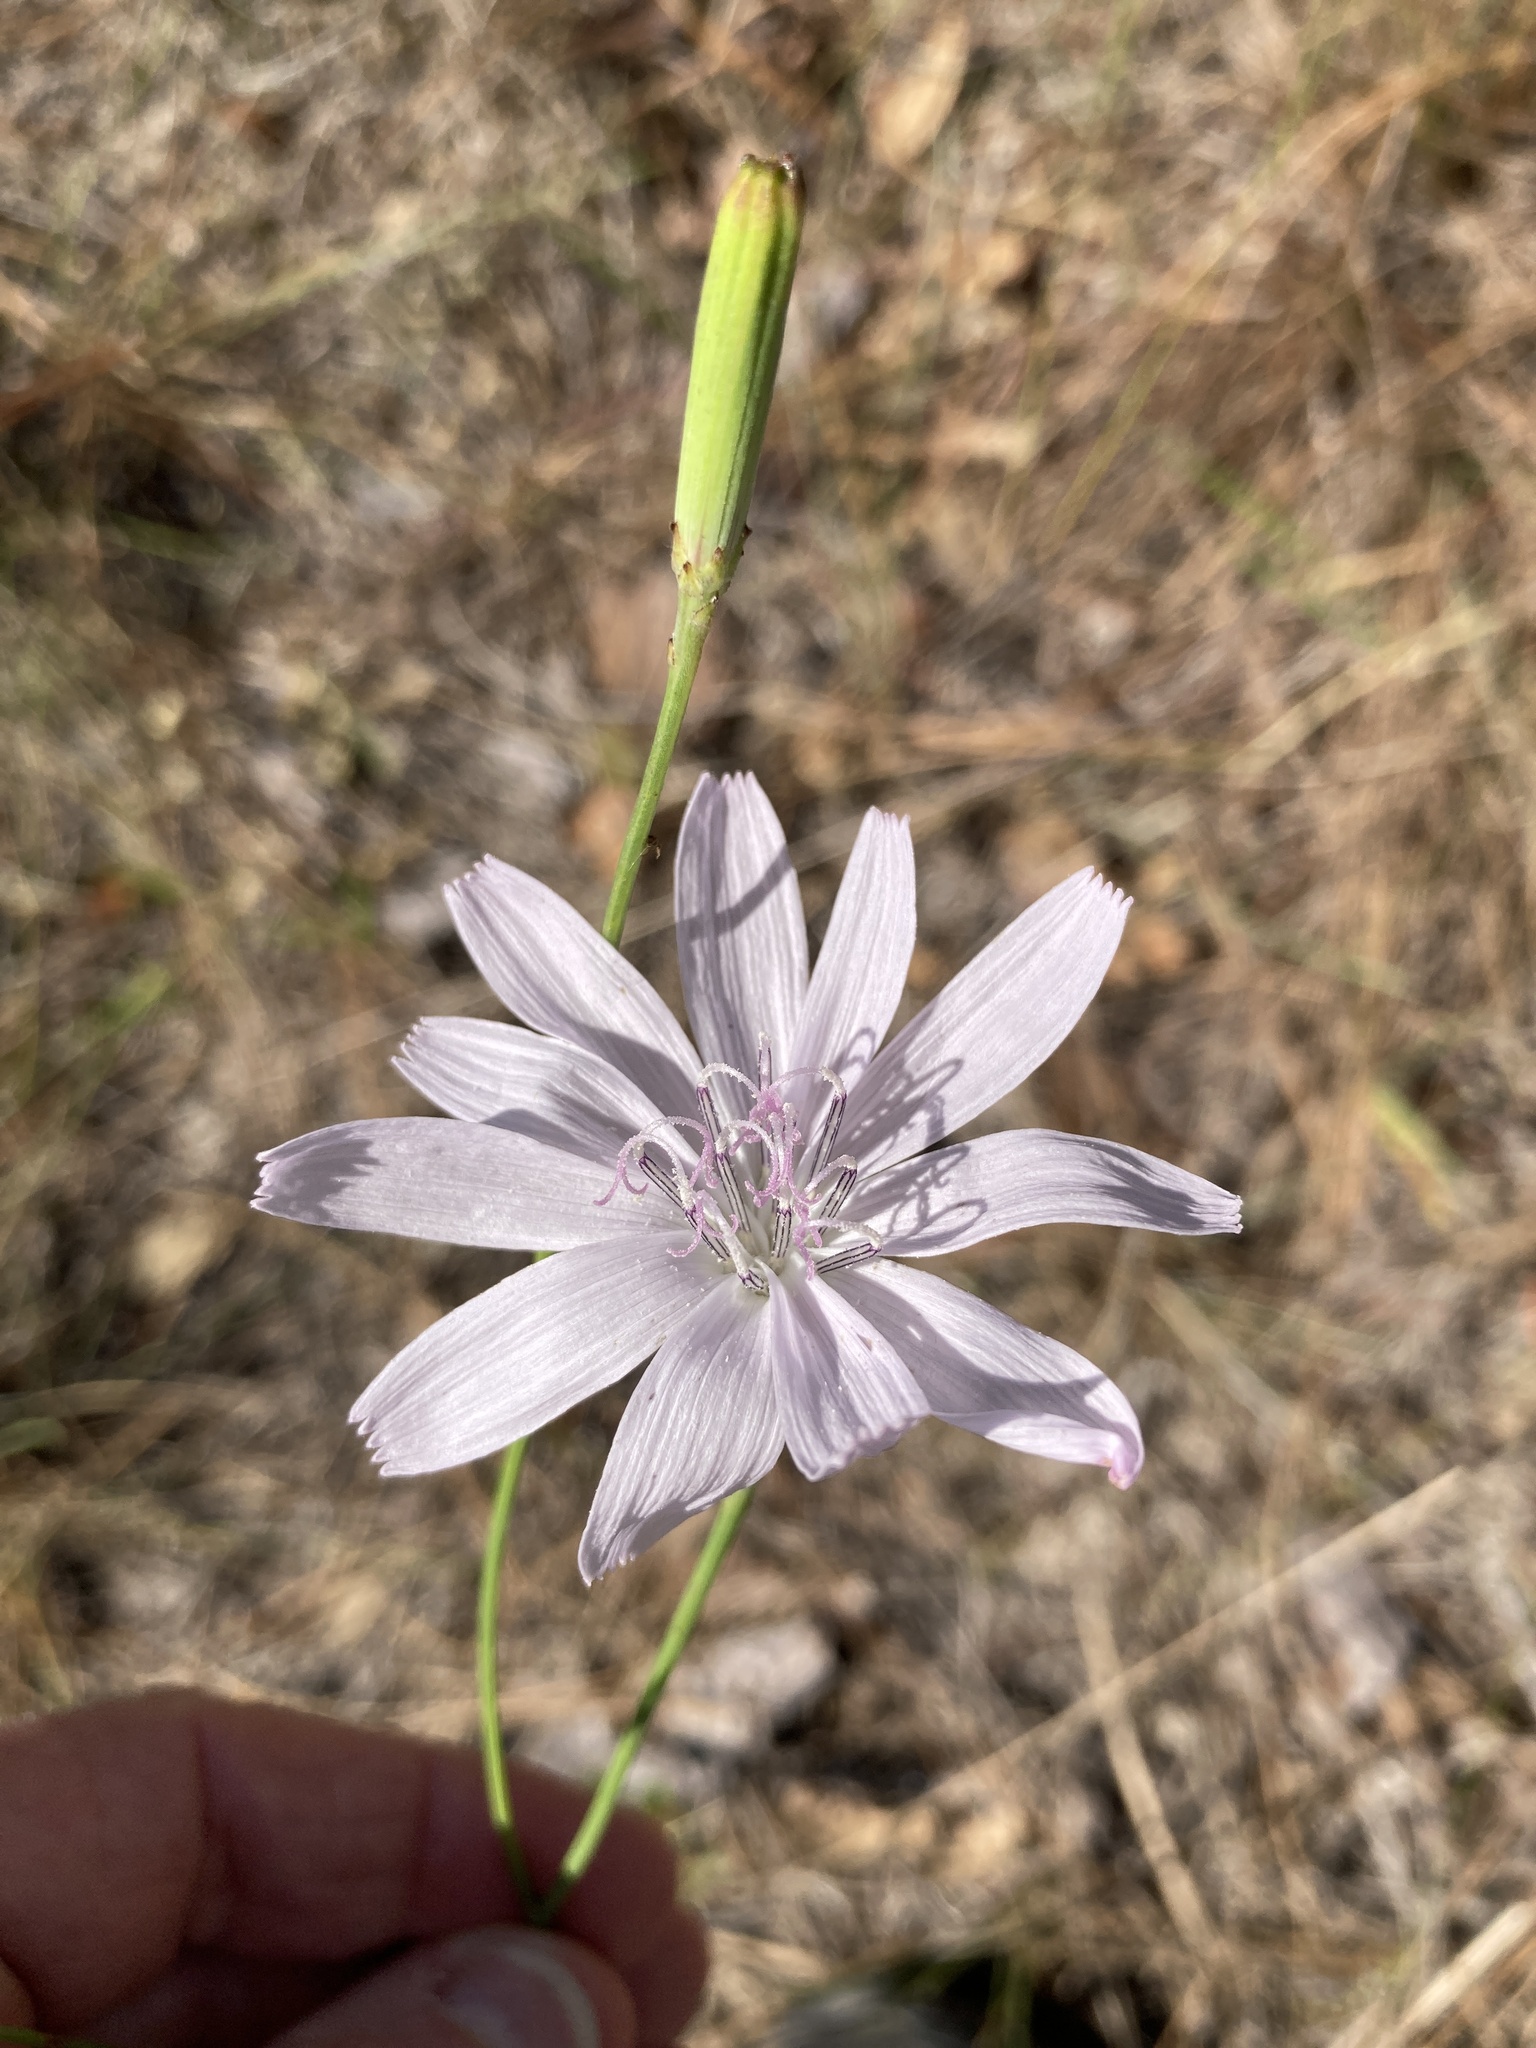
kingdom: Plantae
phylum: Tracheophyta
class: Magnoliopsida
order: Asterales
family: Asteraceae
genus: Lygodesmia
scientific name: Lygodesmia aphylla
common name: Rose-rush
